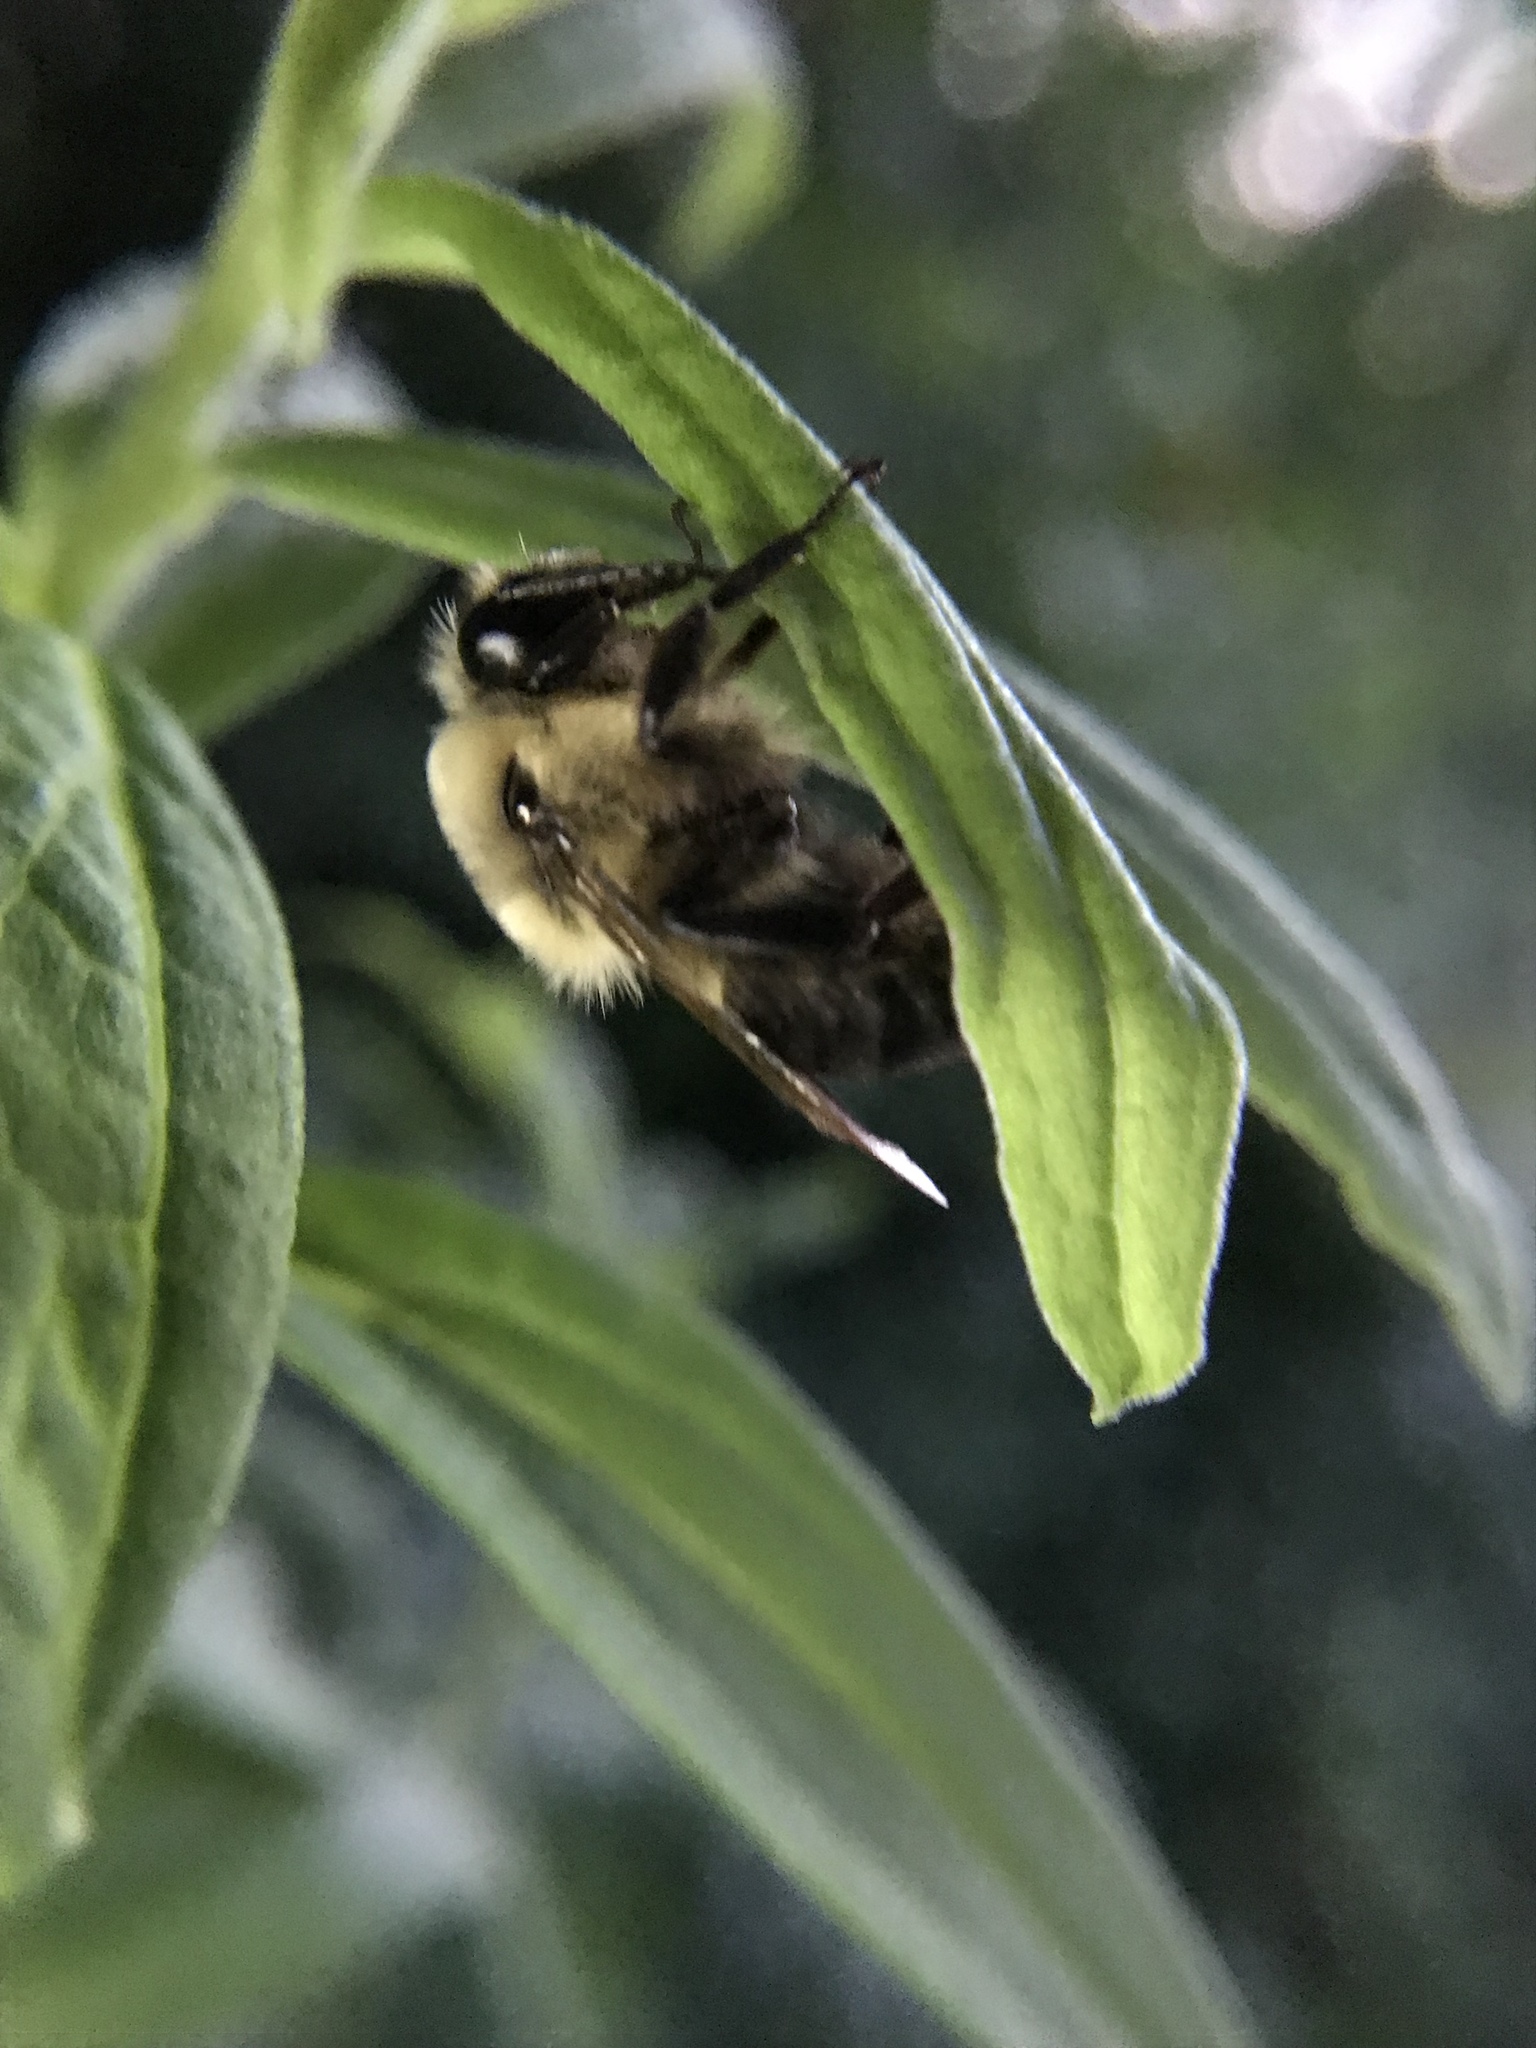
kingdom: Animalia
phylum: Arthropoda
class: Insecta
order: Hymenoptera
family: Apidae
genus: Bombus
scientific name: Bombus griseocollis
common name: Brown-belted bumble bee
